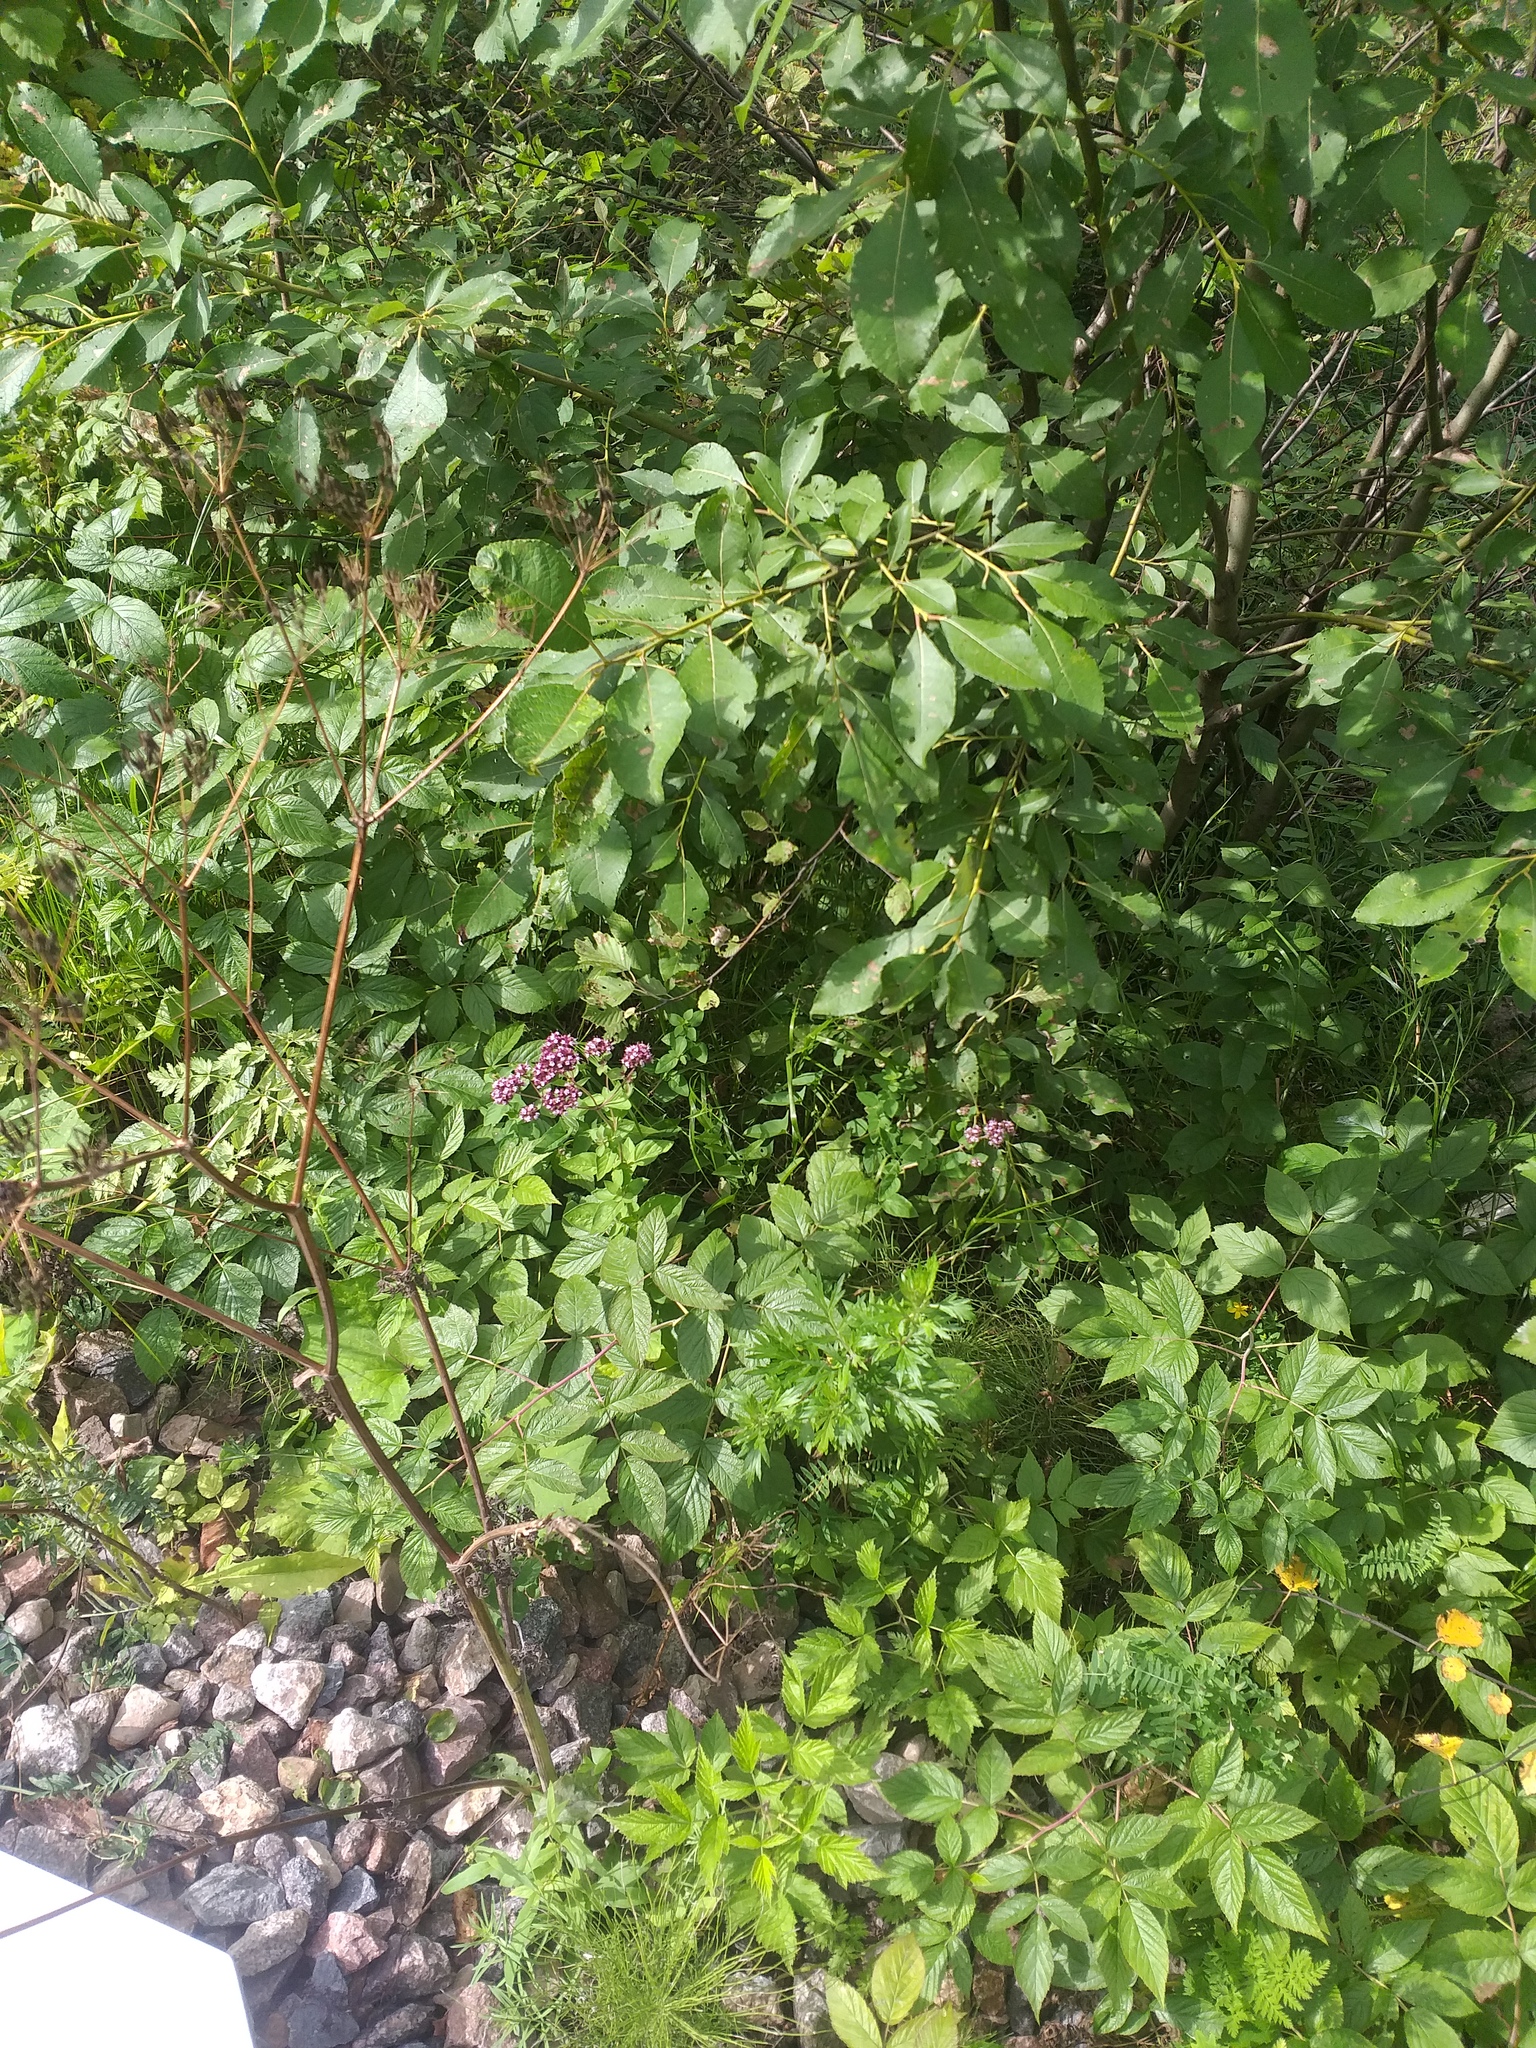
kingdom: Plantae
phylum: Tracheophyta
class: Magnoliopsida
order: Lamiales
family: Lamiaceae
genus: Origanum
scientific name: Origanum vulgare
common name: Wild marjoram
